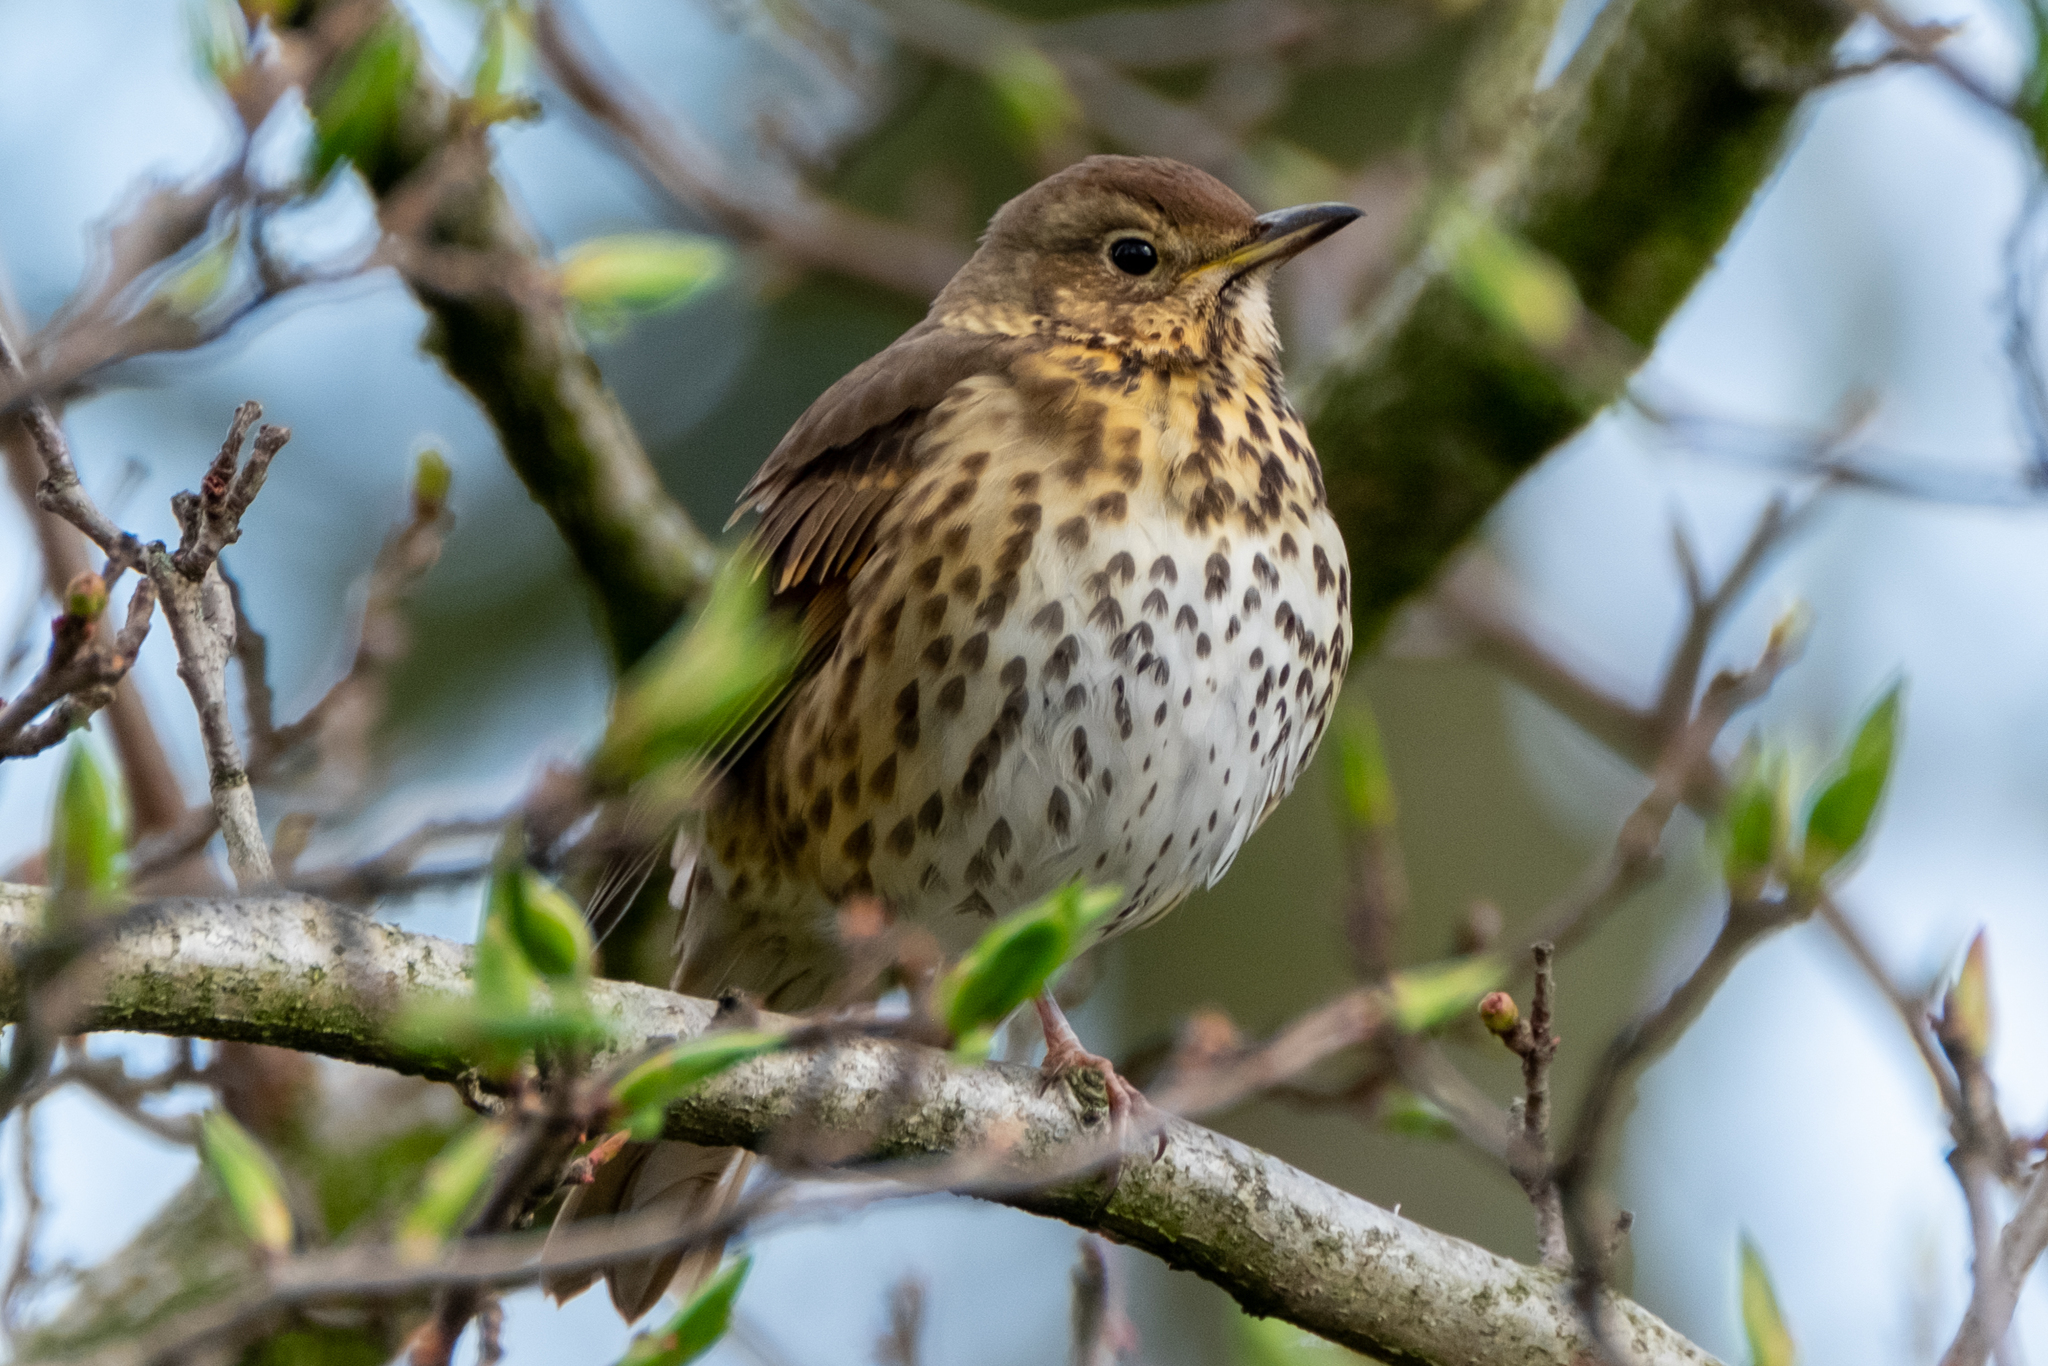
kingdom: Animalia
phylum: Chordata
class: Aves
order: Passeriformes
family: Turdidae
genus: Turdus
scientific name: Turdus philomelos
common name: Song thrush
